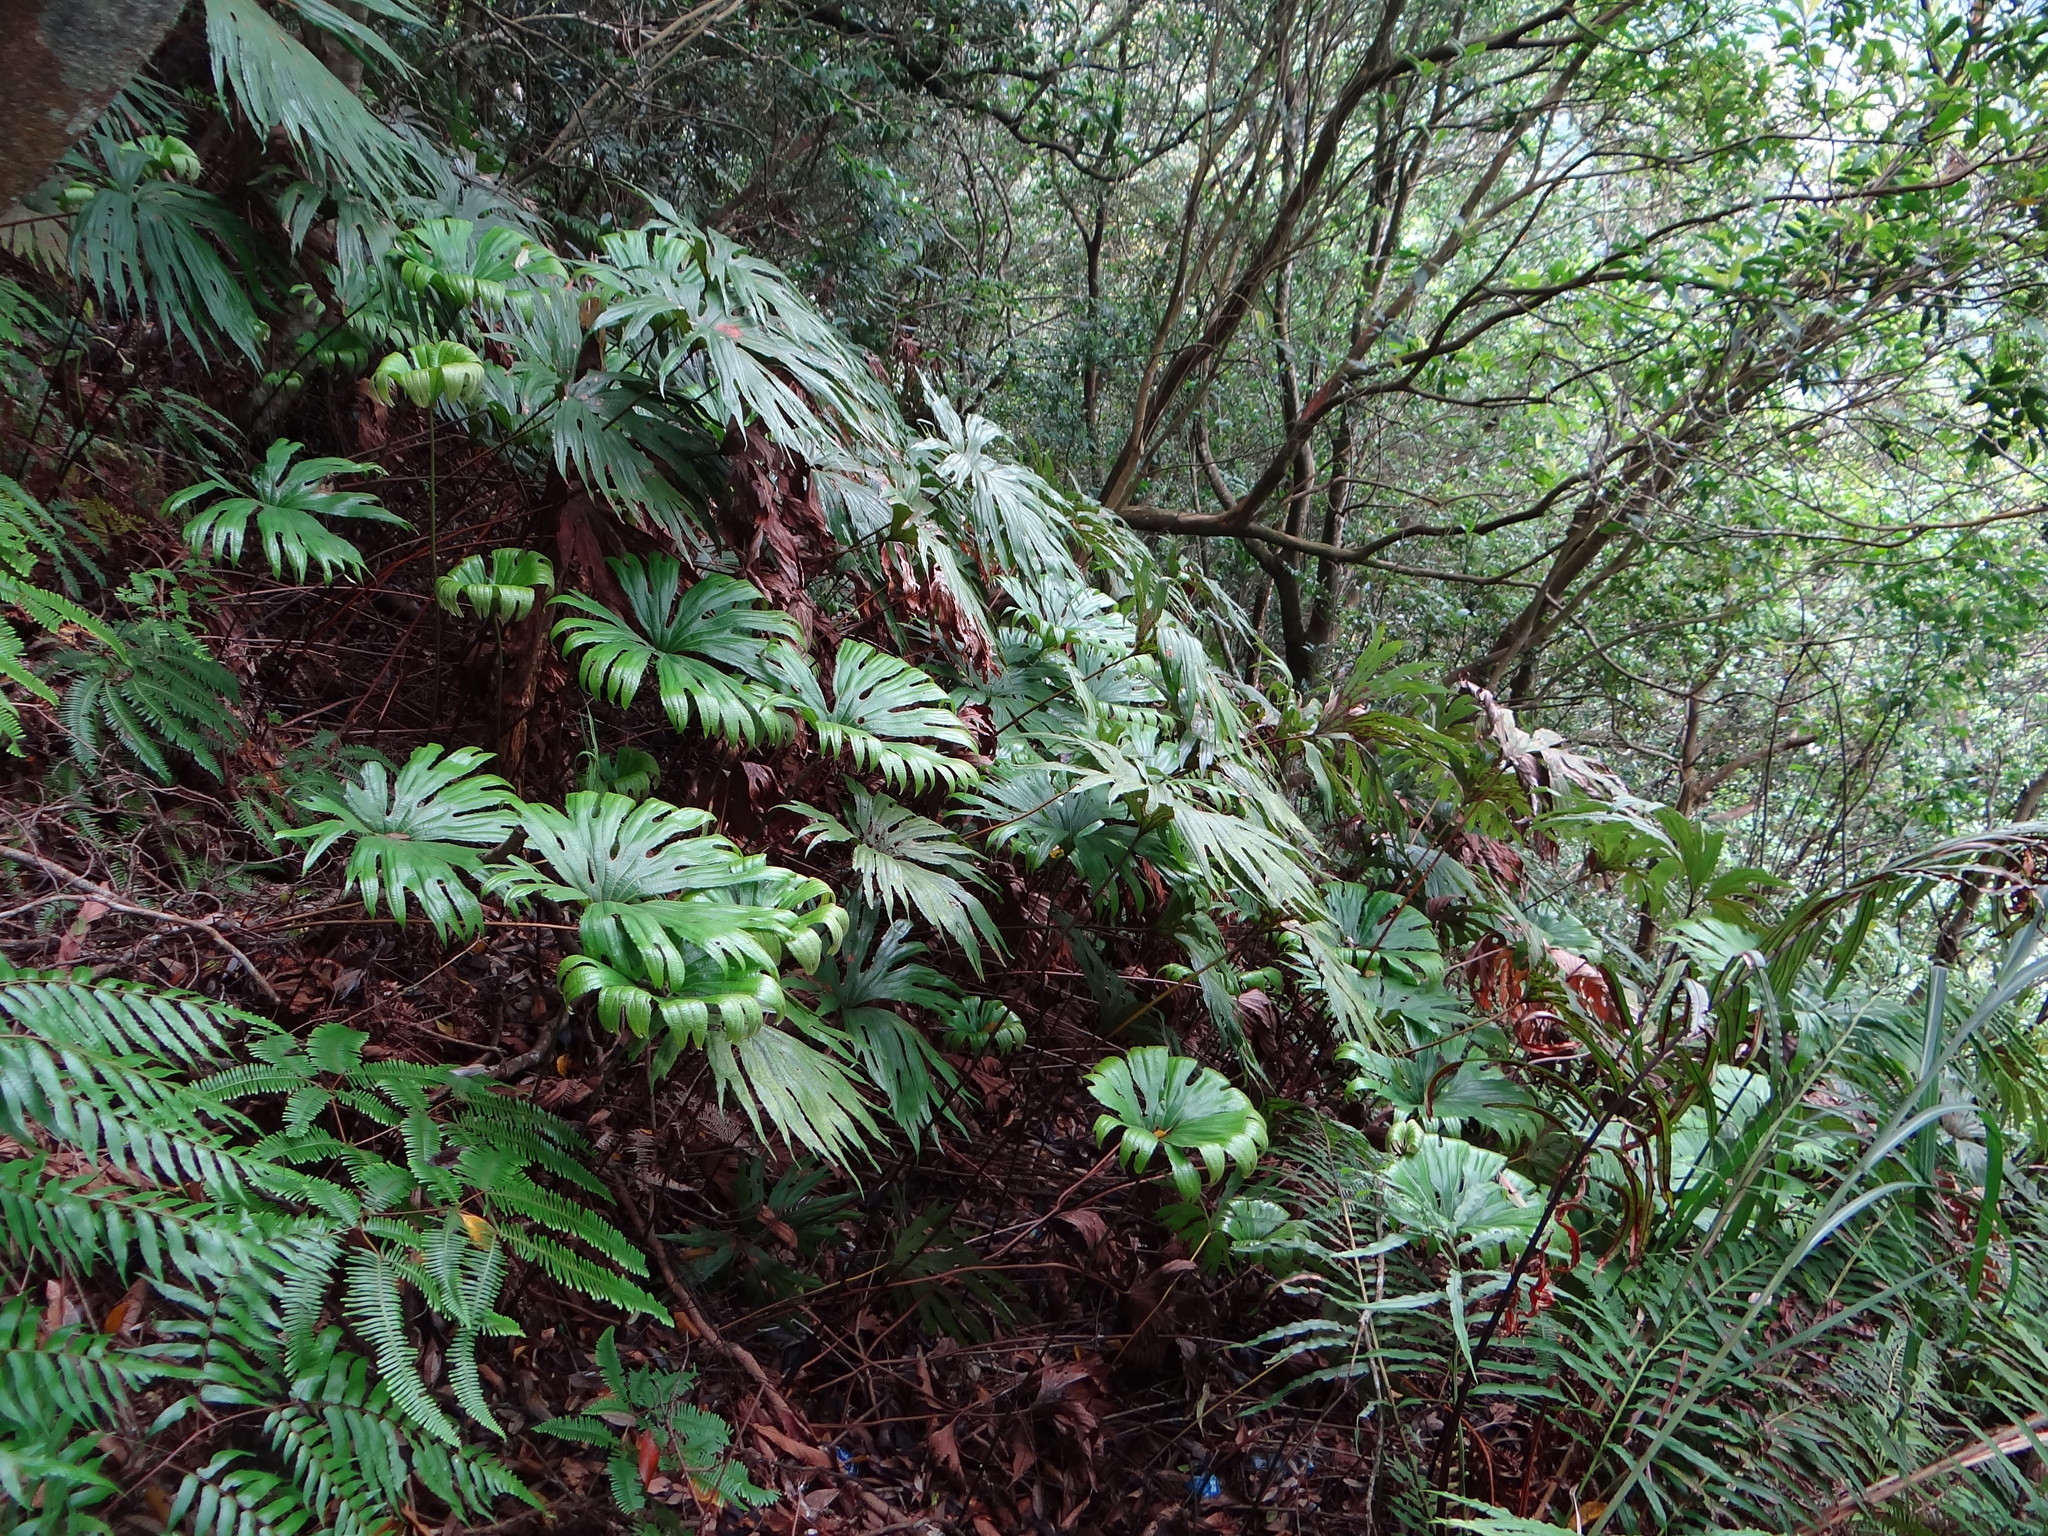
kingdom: Plantae
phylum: Tracheophyta
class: Polypodiopsida
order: Gleicheniales
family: Dipteridaceae
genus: Dipteris
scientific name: Dipteris conjugata
